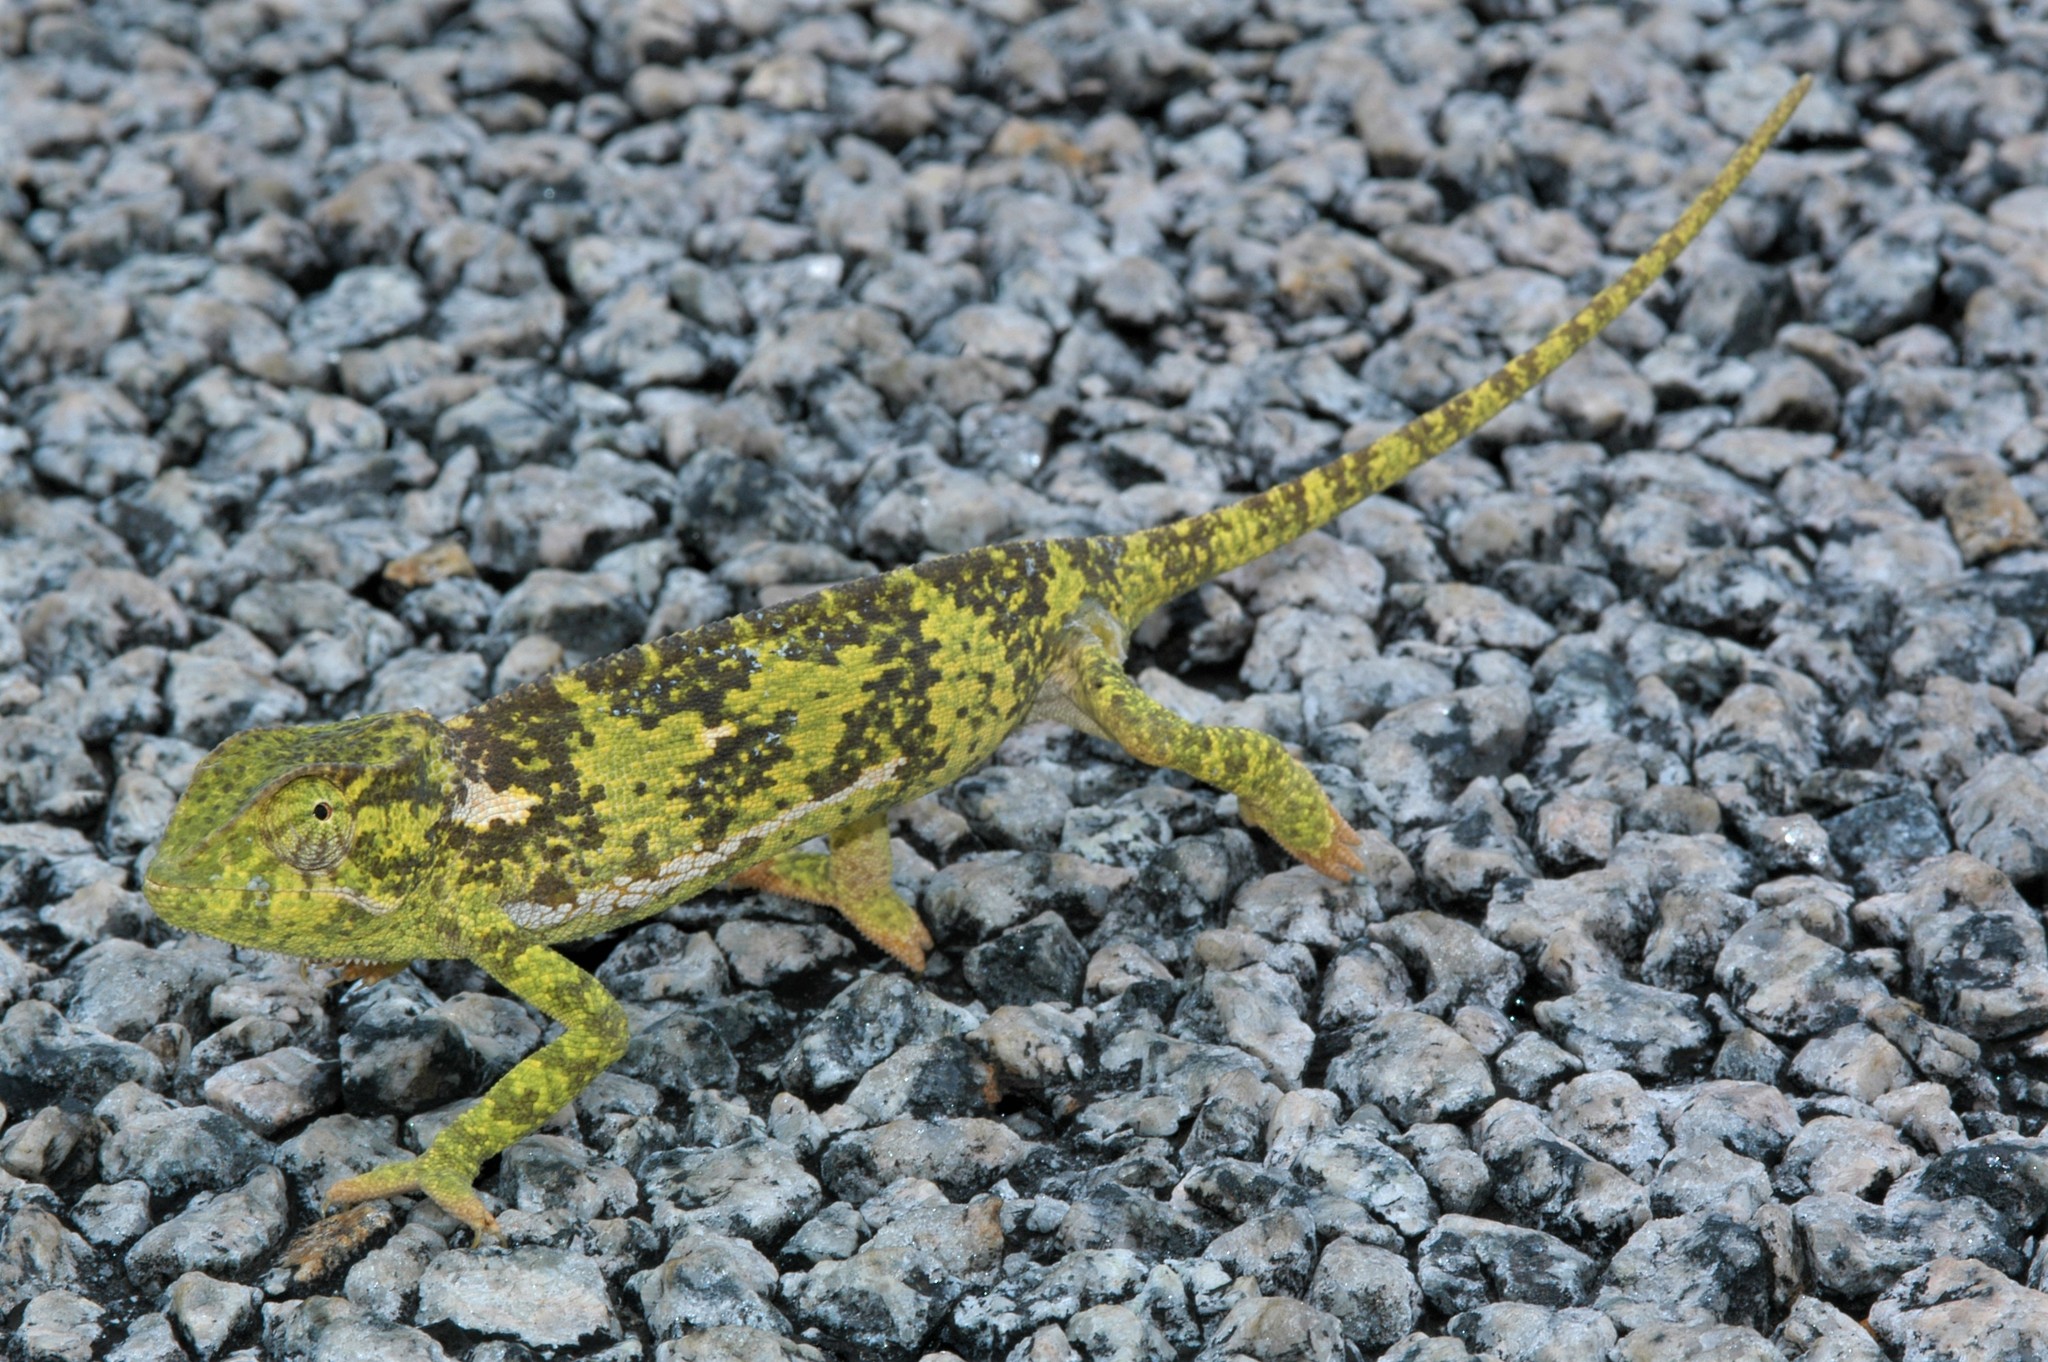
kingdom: Animalia
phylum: Chordata
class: Squamata
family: Chamaeleonidae
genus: Chamaeleo
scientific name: Chamaeleo dilepis
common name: Flapneck chameleon
